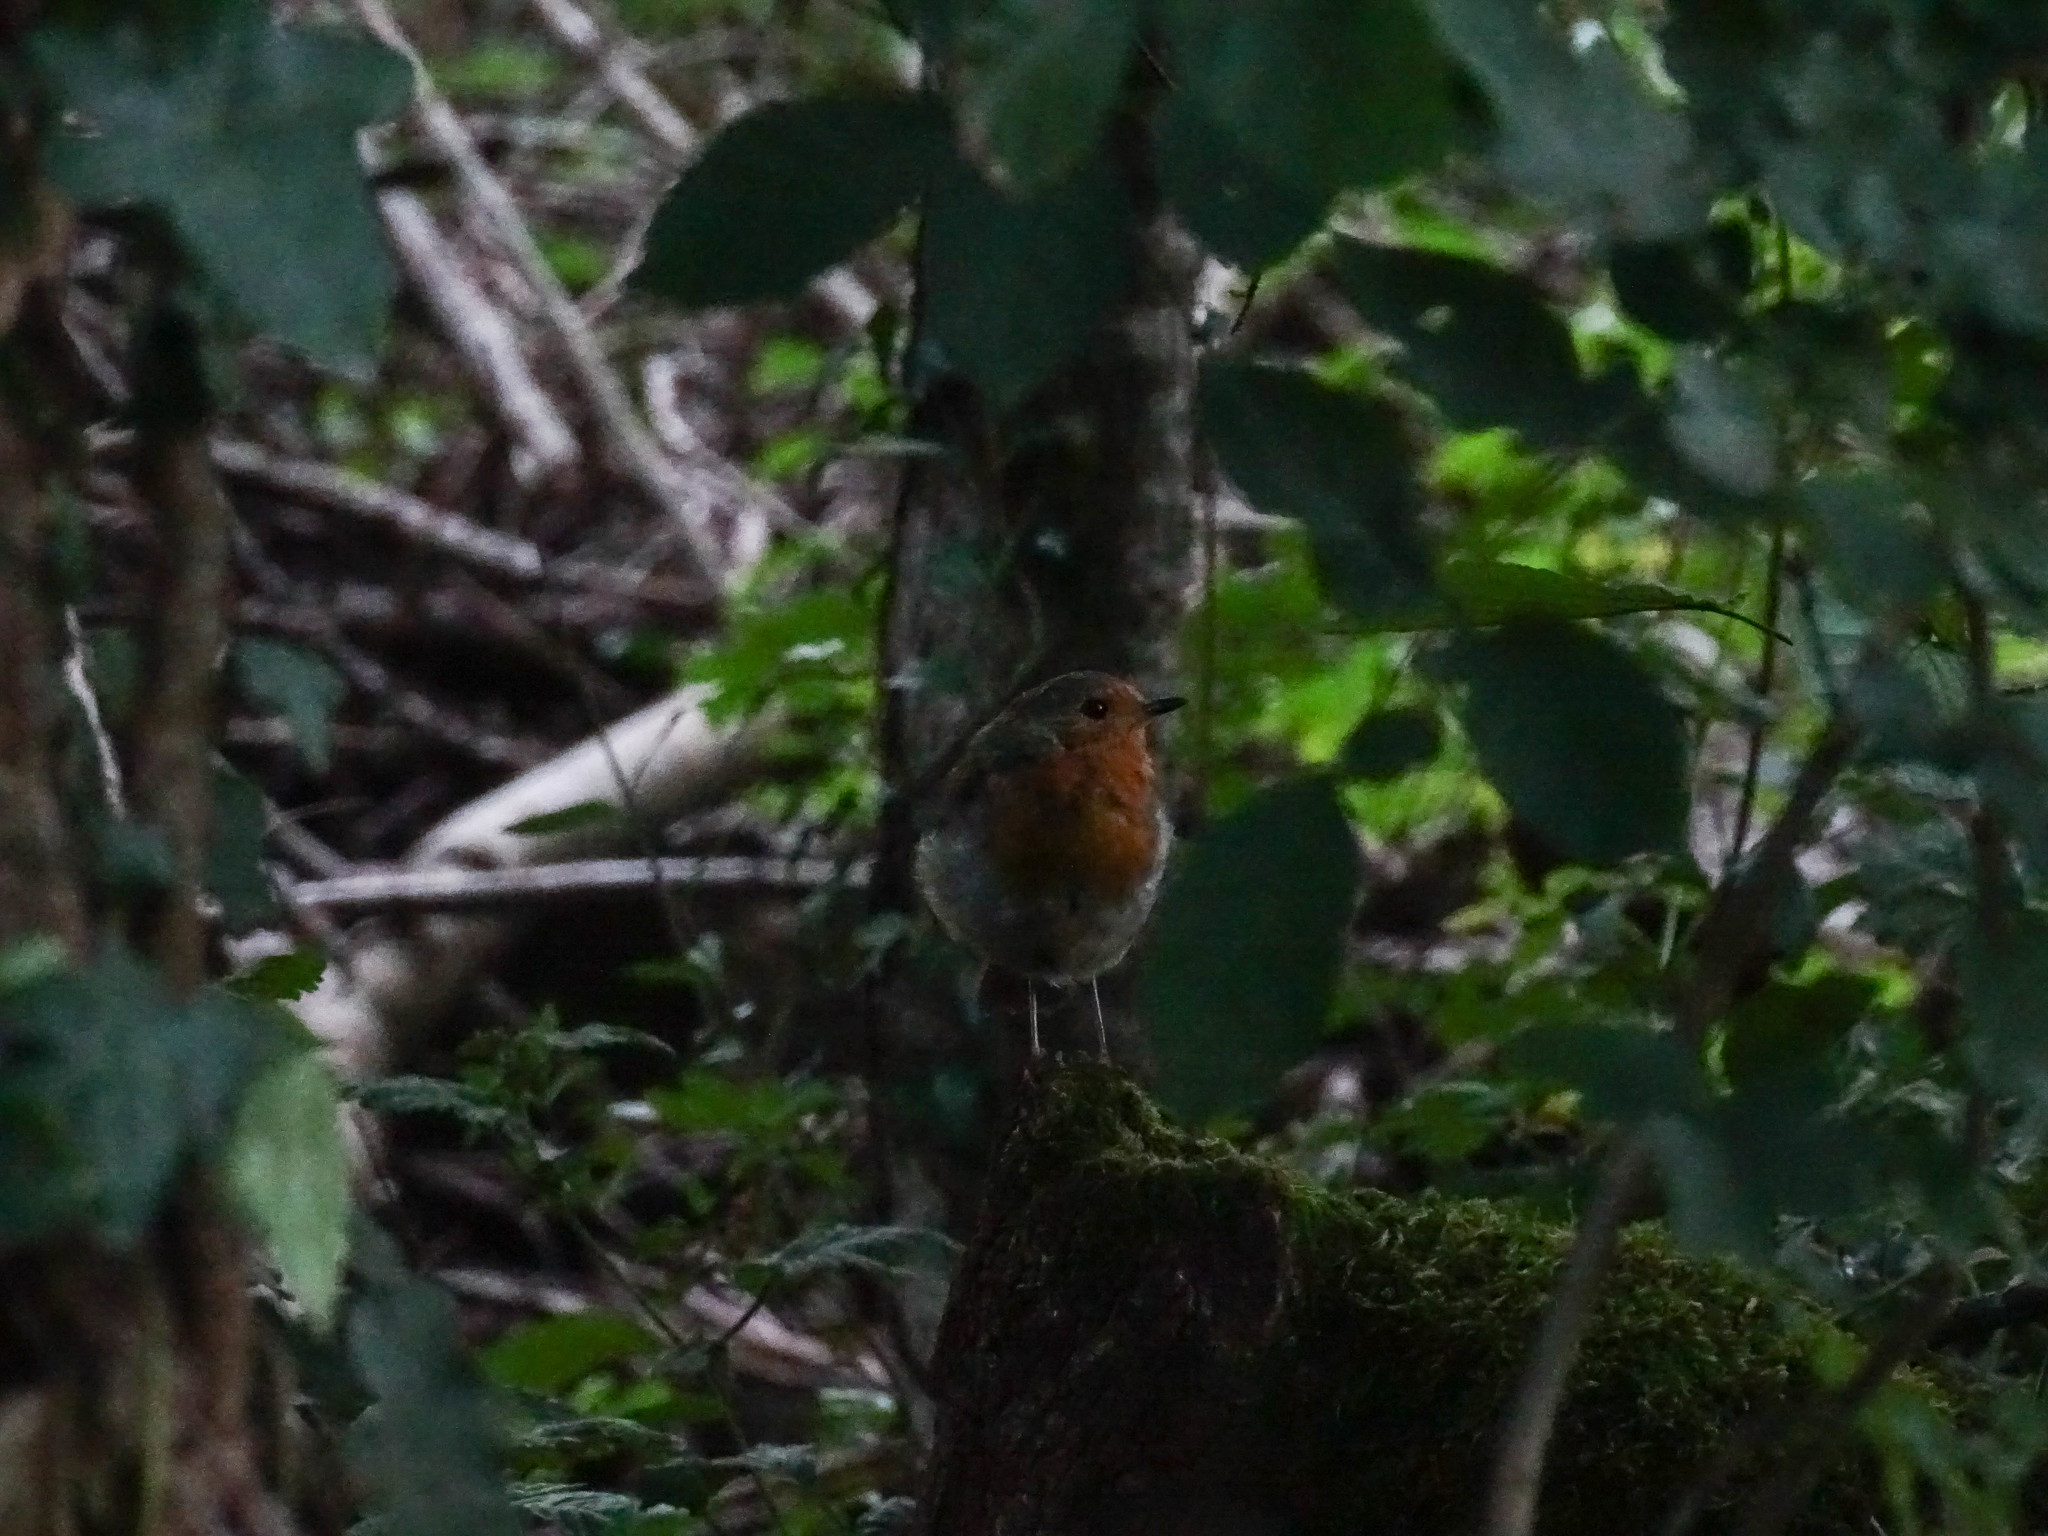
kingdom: Animalia
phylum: Chordata
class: Aves
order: Passeriformes
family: Muscicapidae
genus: Erithacus
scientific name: Erithacus rubecula
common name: European robin
